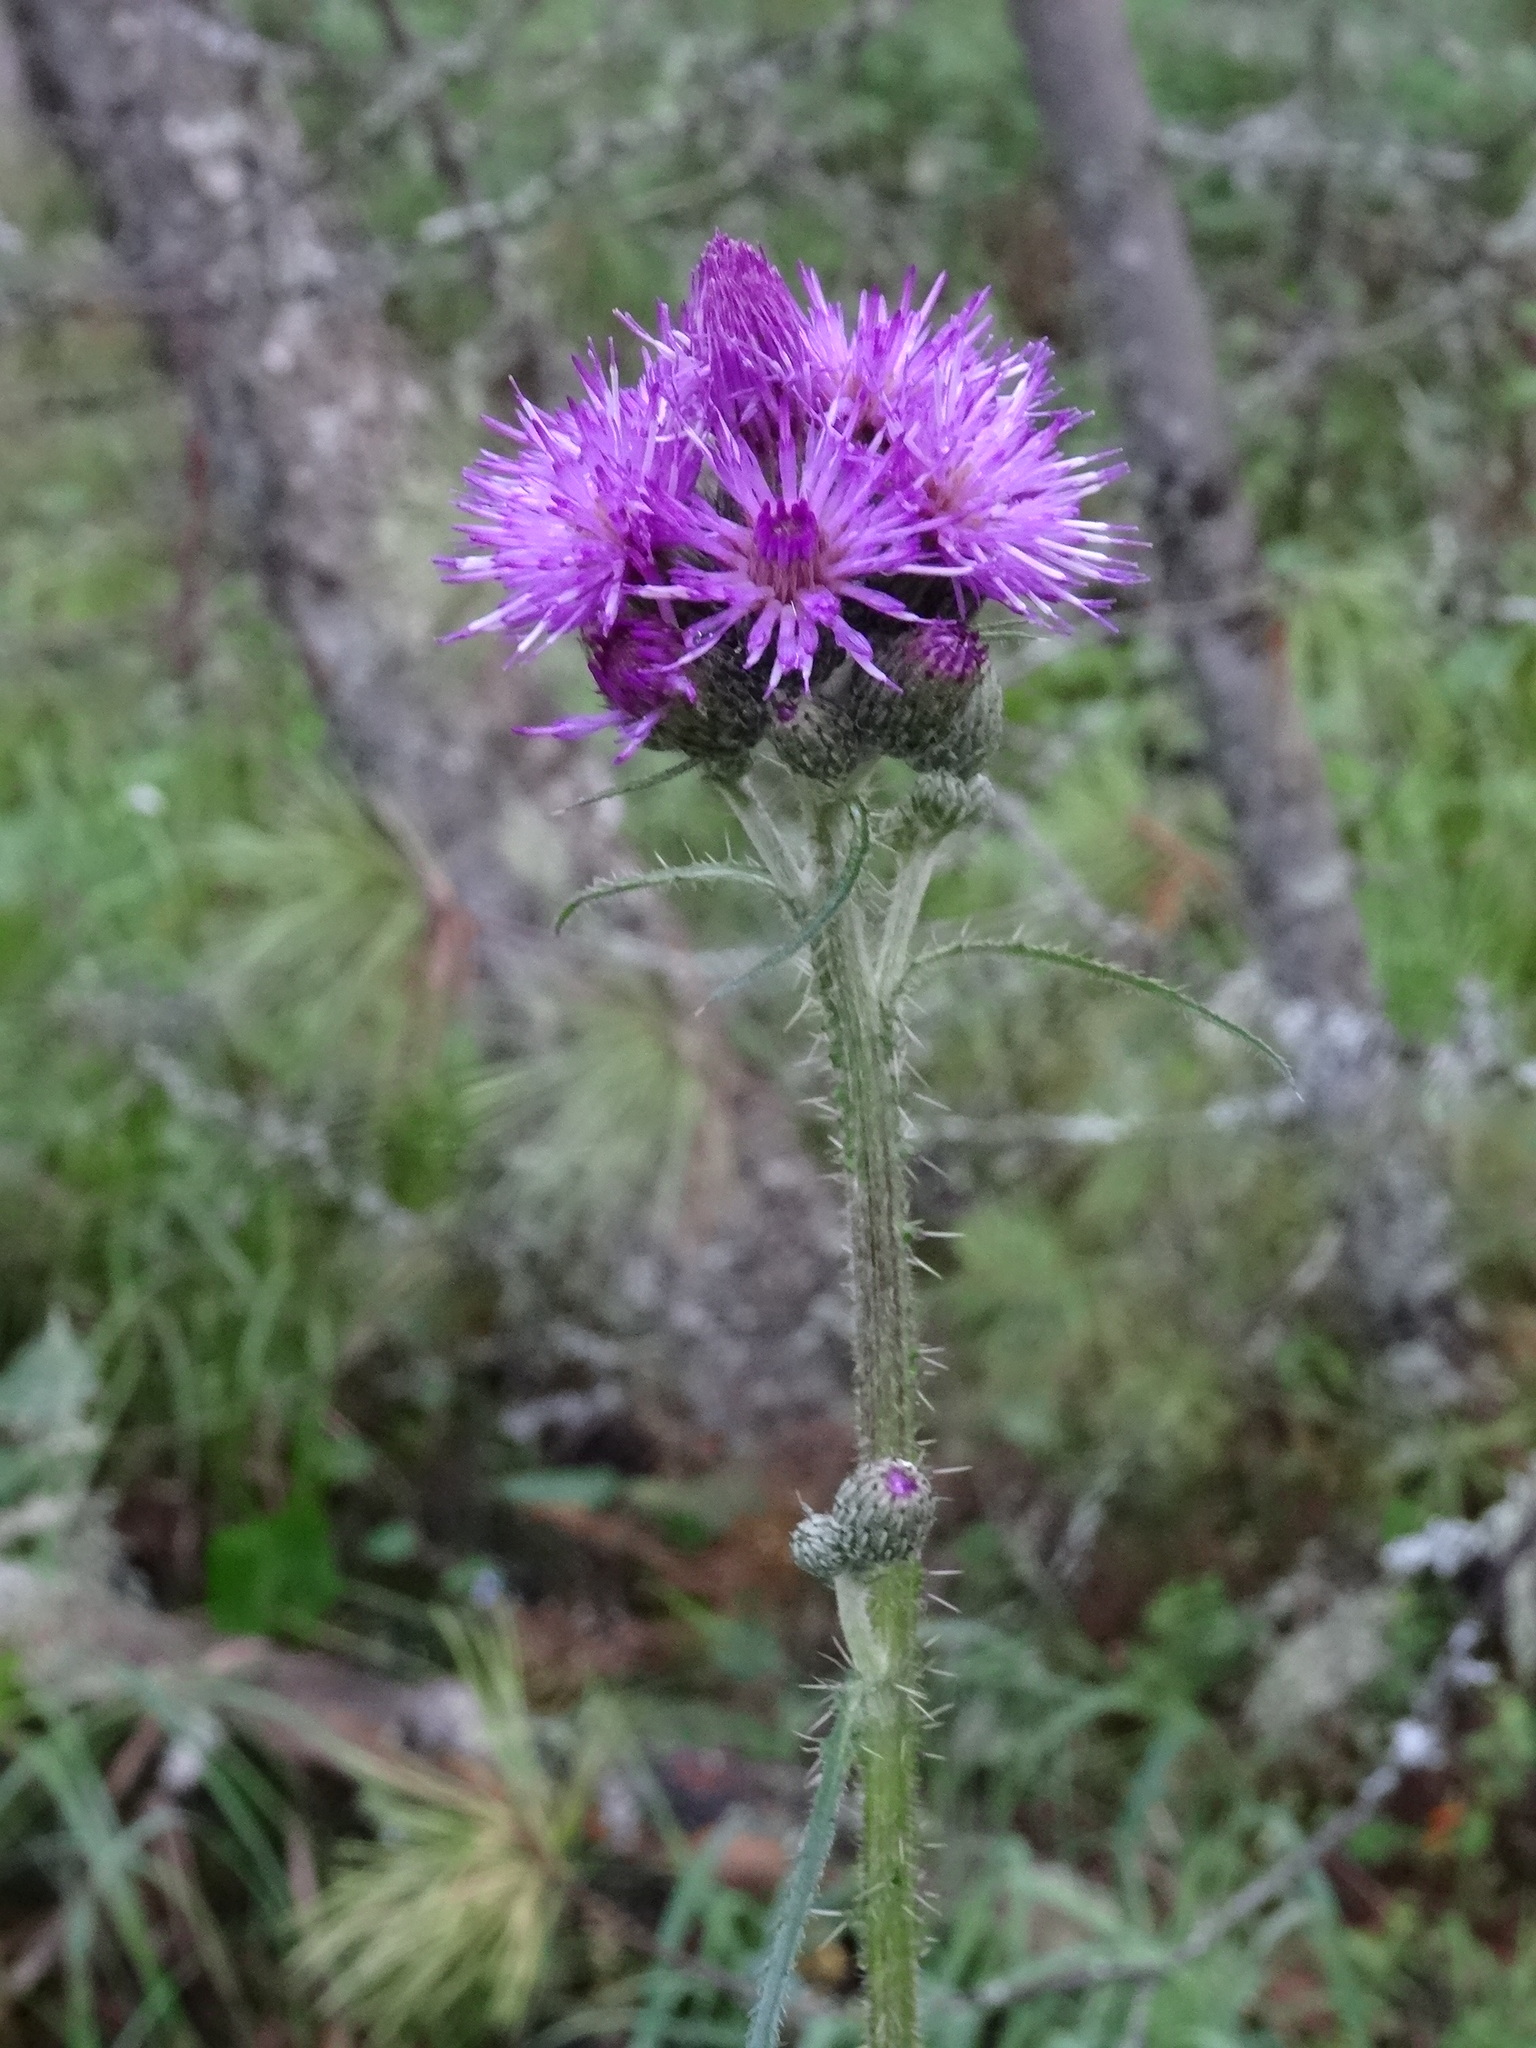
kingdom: Plantae
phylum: Tracheophyta
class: Magnoliopsida
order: Asterales
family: Asteraceae
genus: Cirsium
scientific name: Cirsium palustre
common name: Marsh thistle
